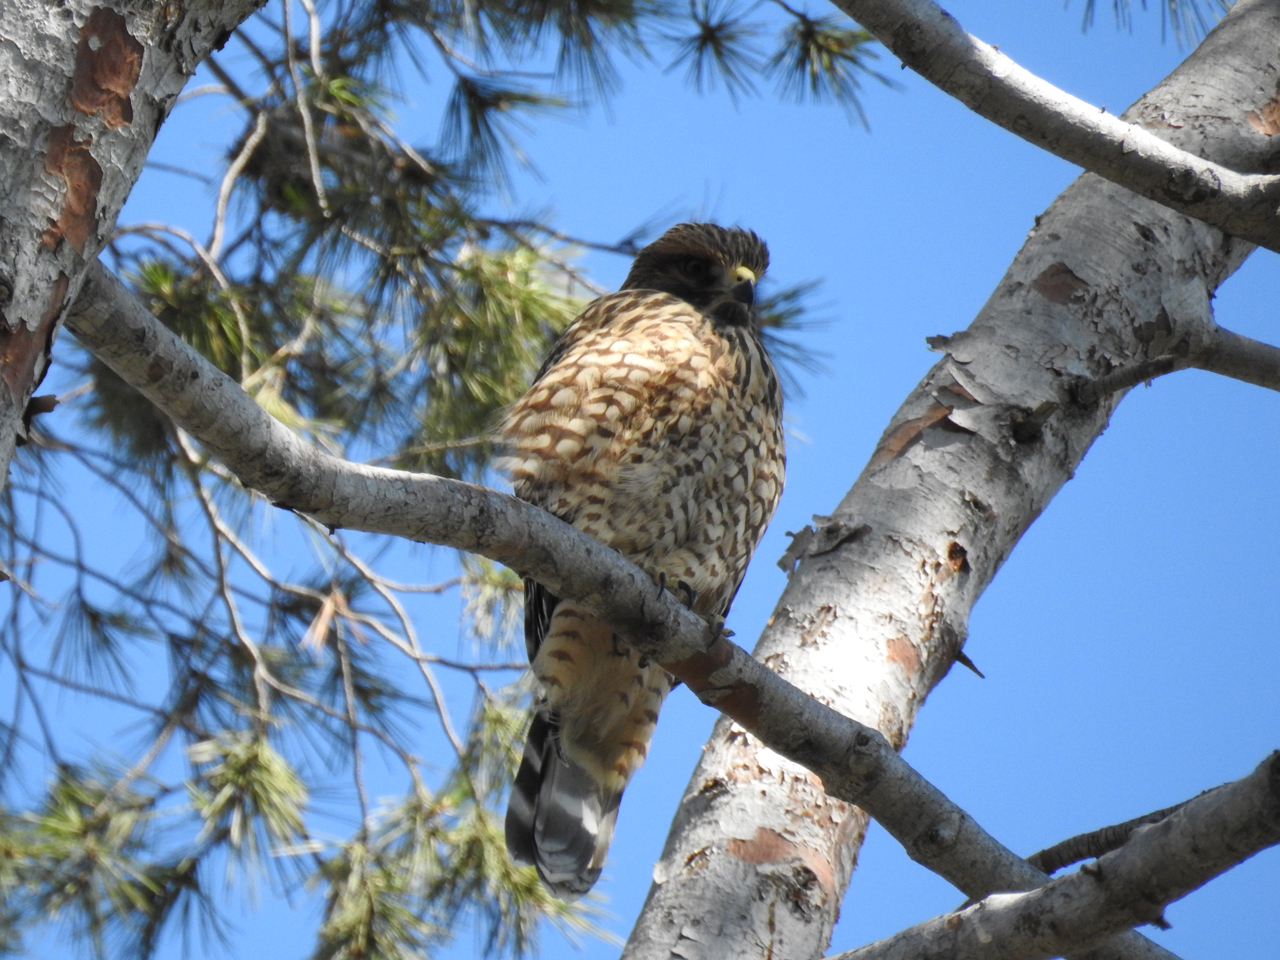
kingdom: Animalia
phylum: Chordata
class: Aves
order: Accipitriformes
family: Accipitridae
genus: Buteo
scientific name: Buteo lineatus
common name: Red-shouldered hawk
